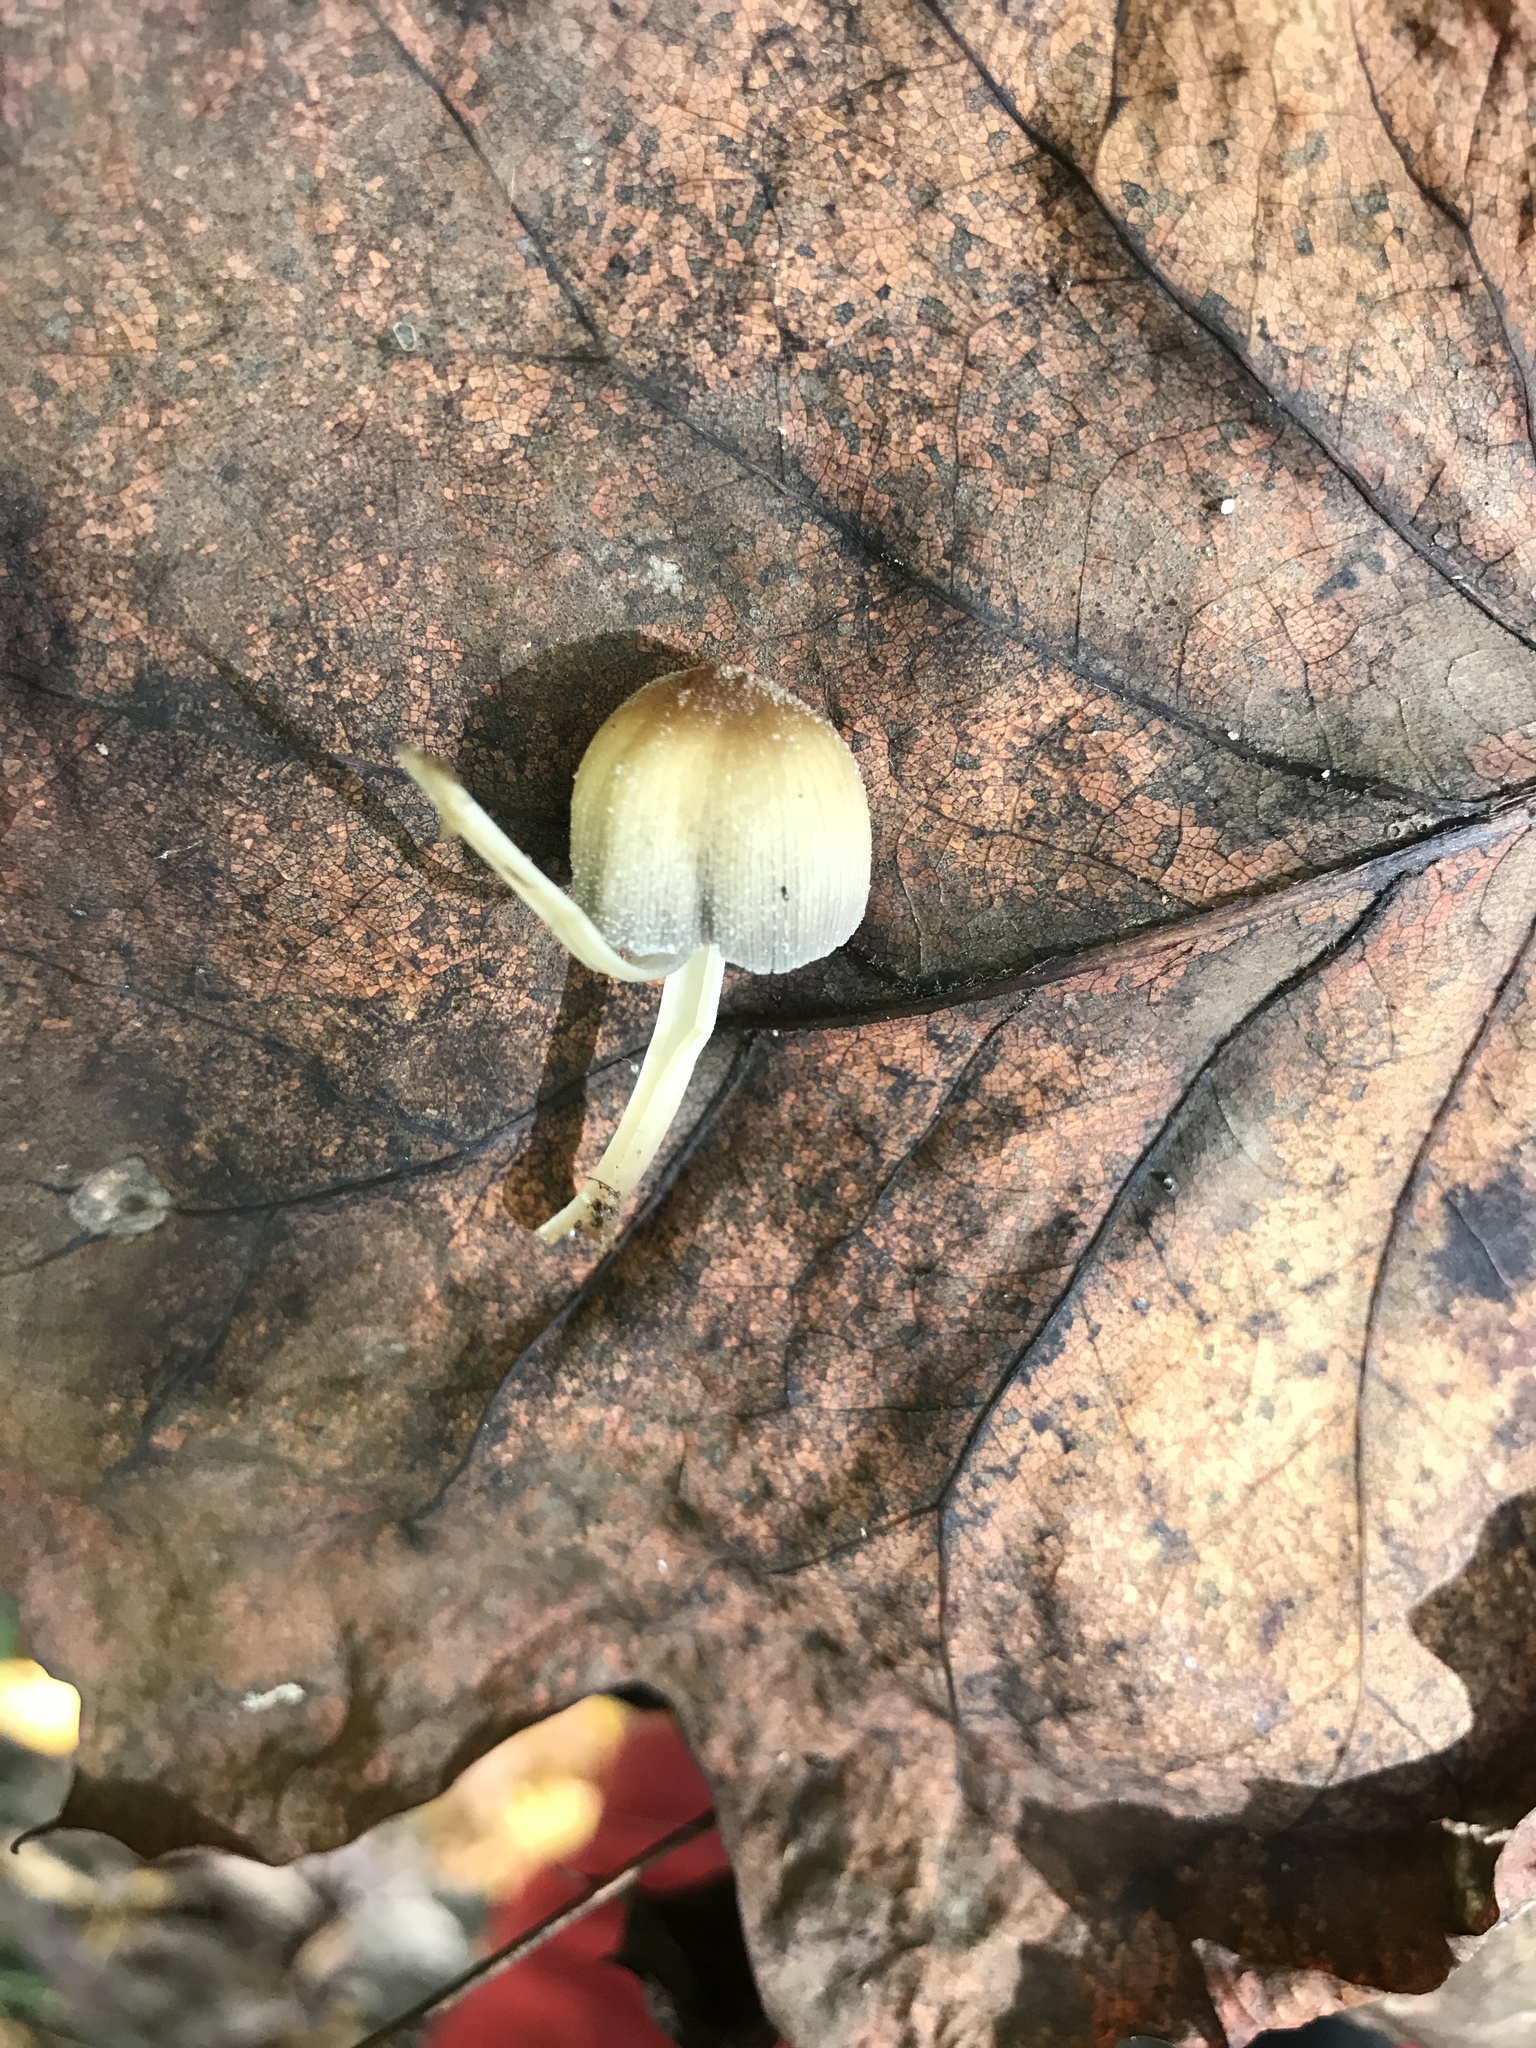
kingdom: Fungi
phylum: Basidiomycota
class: Agaricomycetes
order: Agaricales
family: Psathyrellaceae
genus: Coprinellus
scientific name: Coprinellus micaceus
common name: Glistening ink-cap
